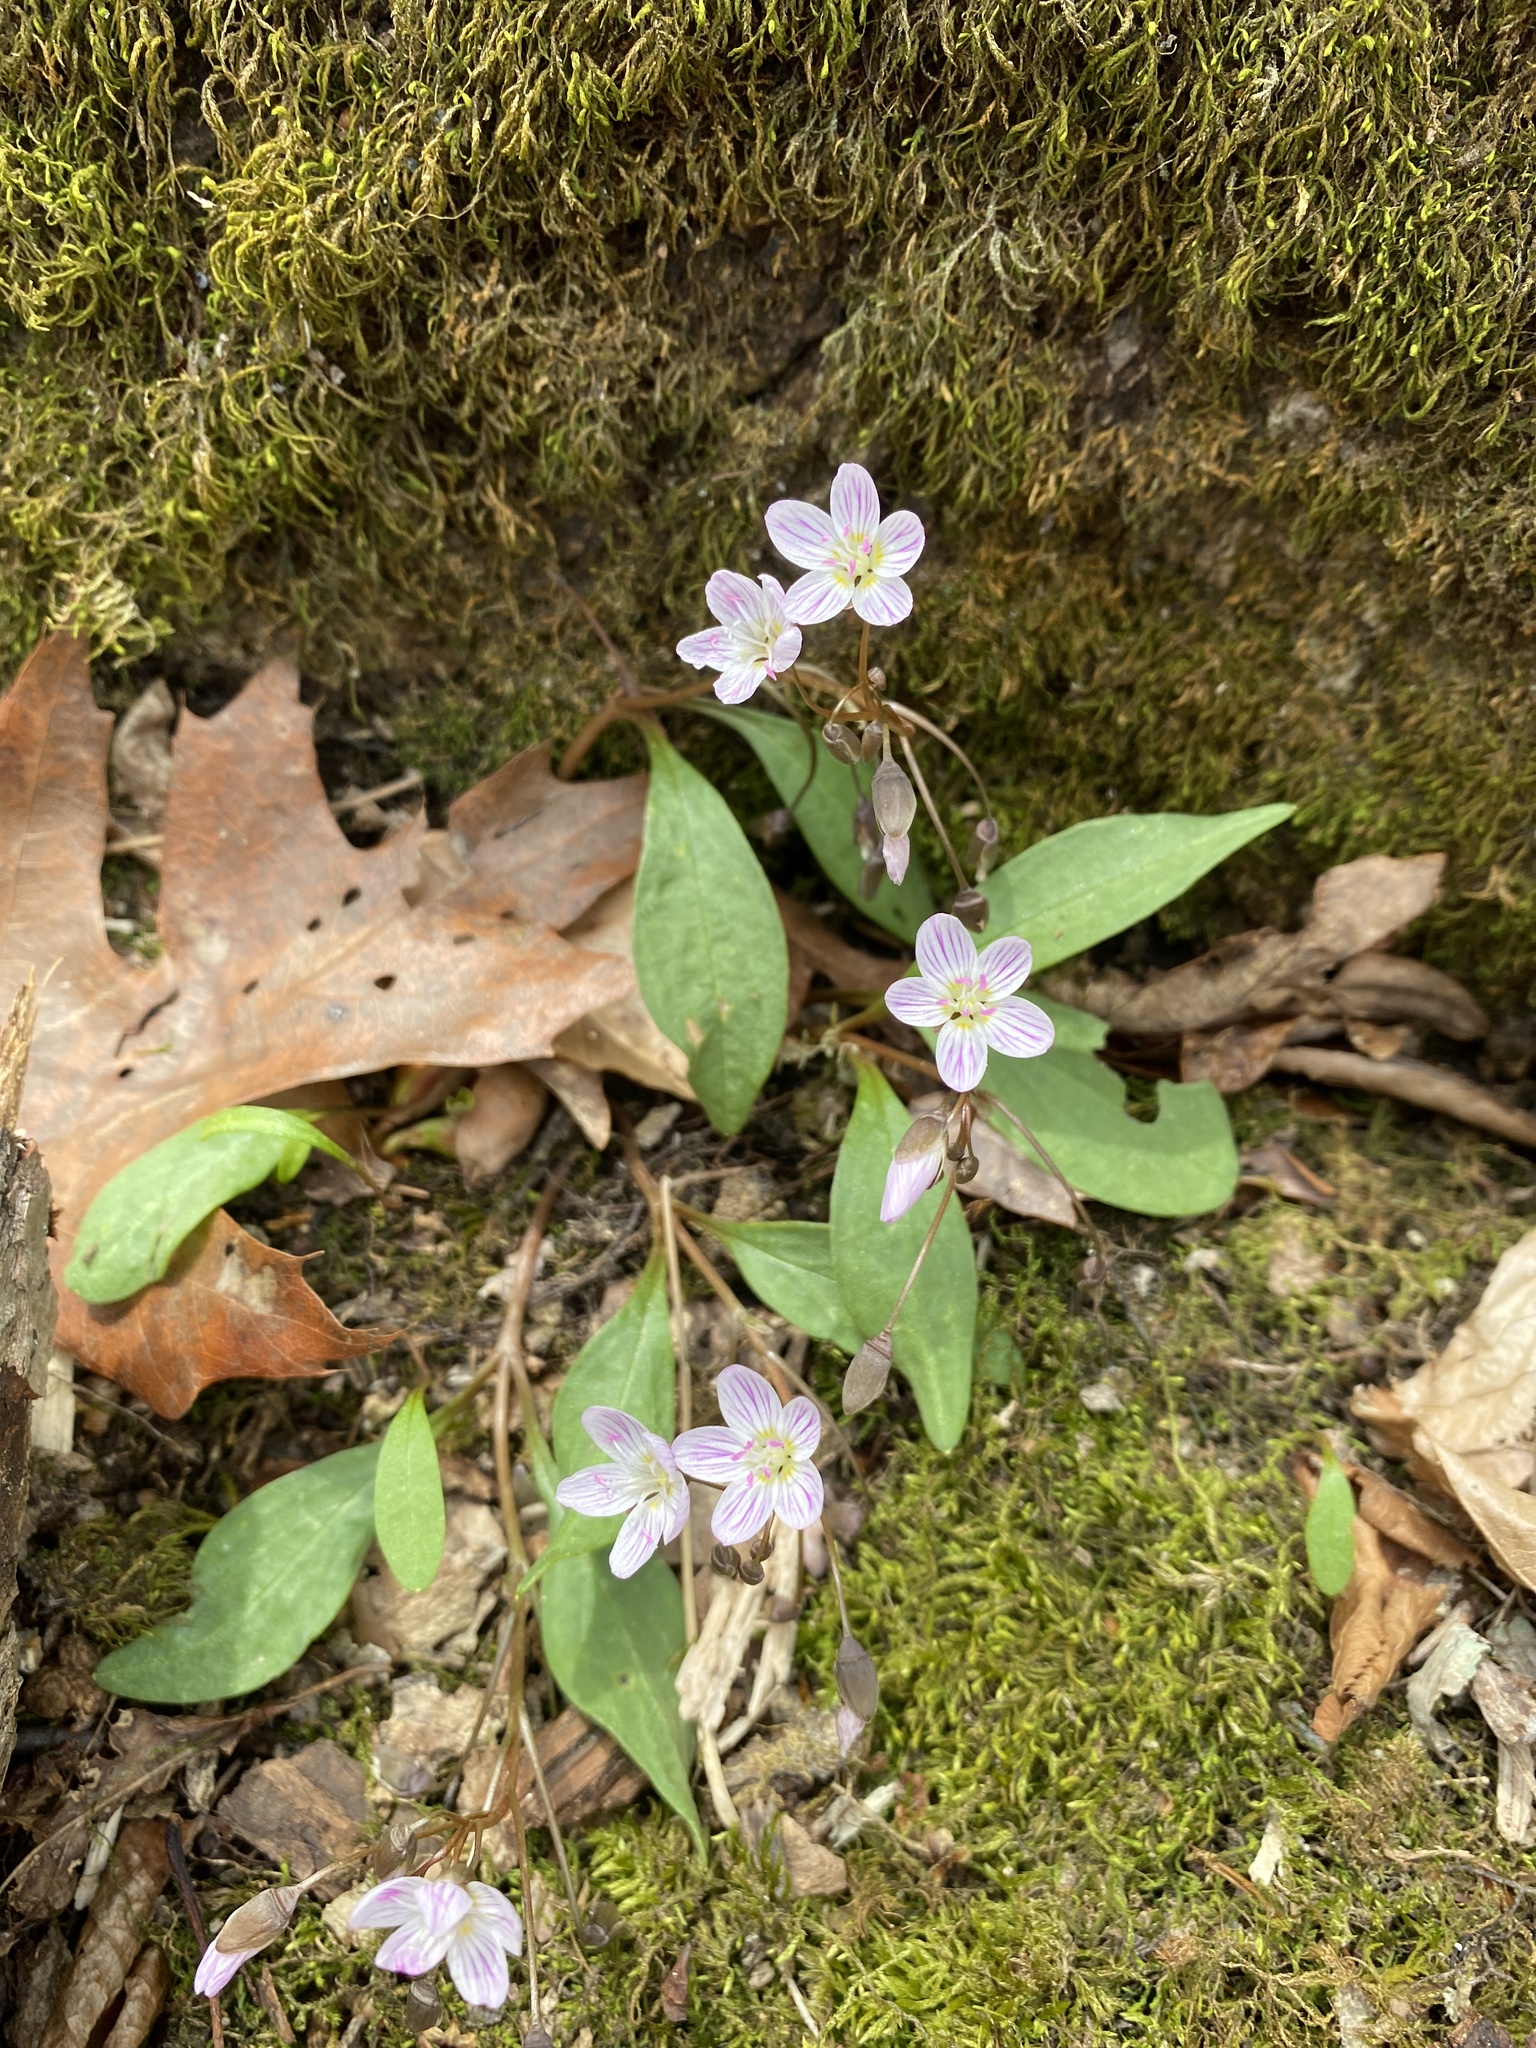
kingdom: Plantae
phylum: Tracheophyta
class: Magnoliopsida
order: Caryophyllales
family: Montiaceae
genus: Claytonia
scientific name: Claytonia caroliniana
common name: Carolina spring beauty
